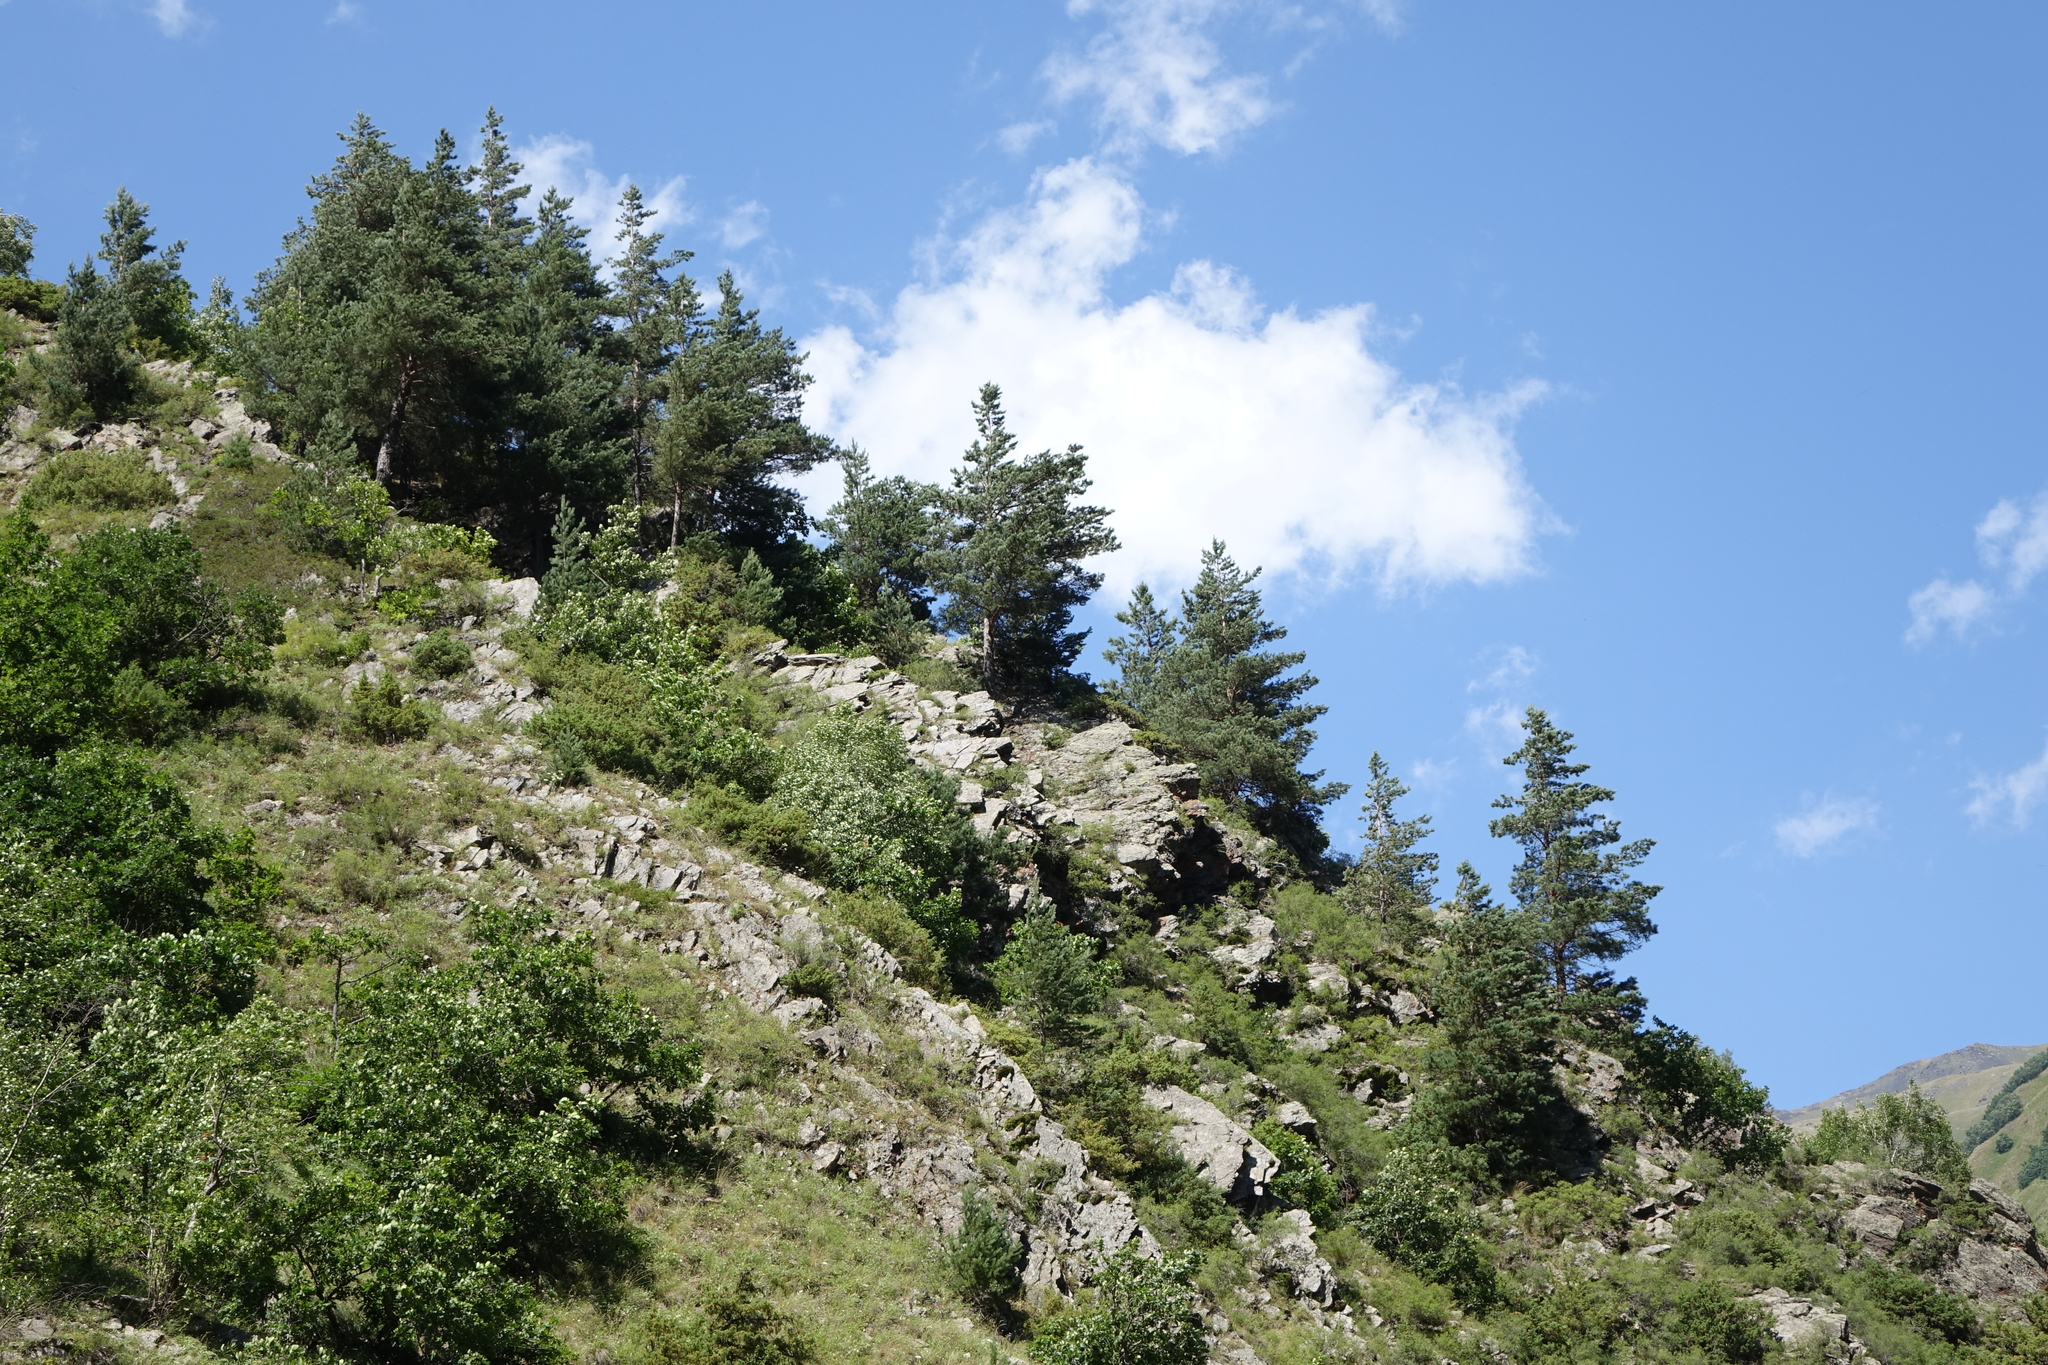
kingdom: Plantae
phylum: Tracheophyta
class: Pinopsida
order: Pinales
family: Pinaceae
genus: Pinus
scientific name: Pinus sylvestris
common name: Scots pine
